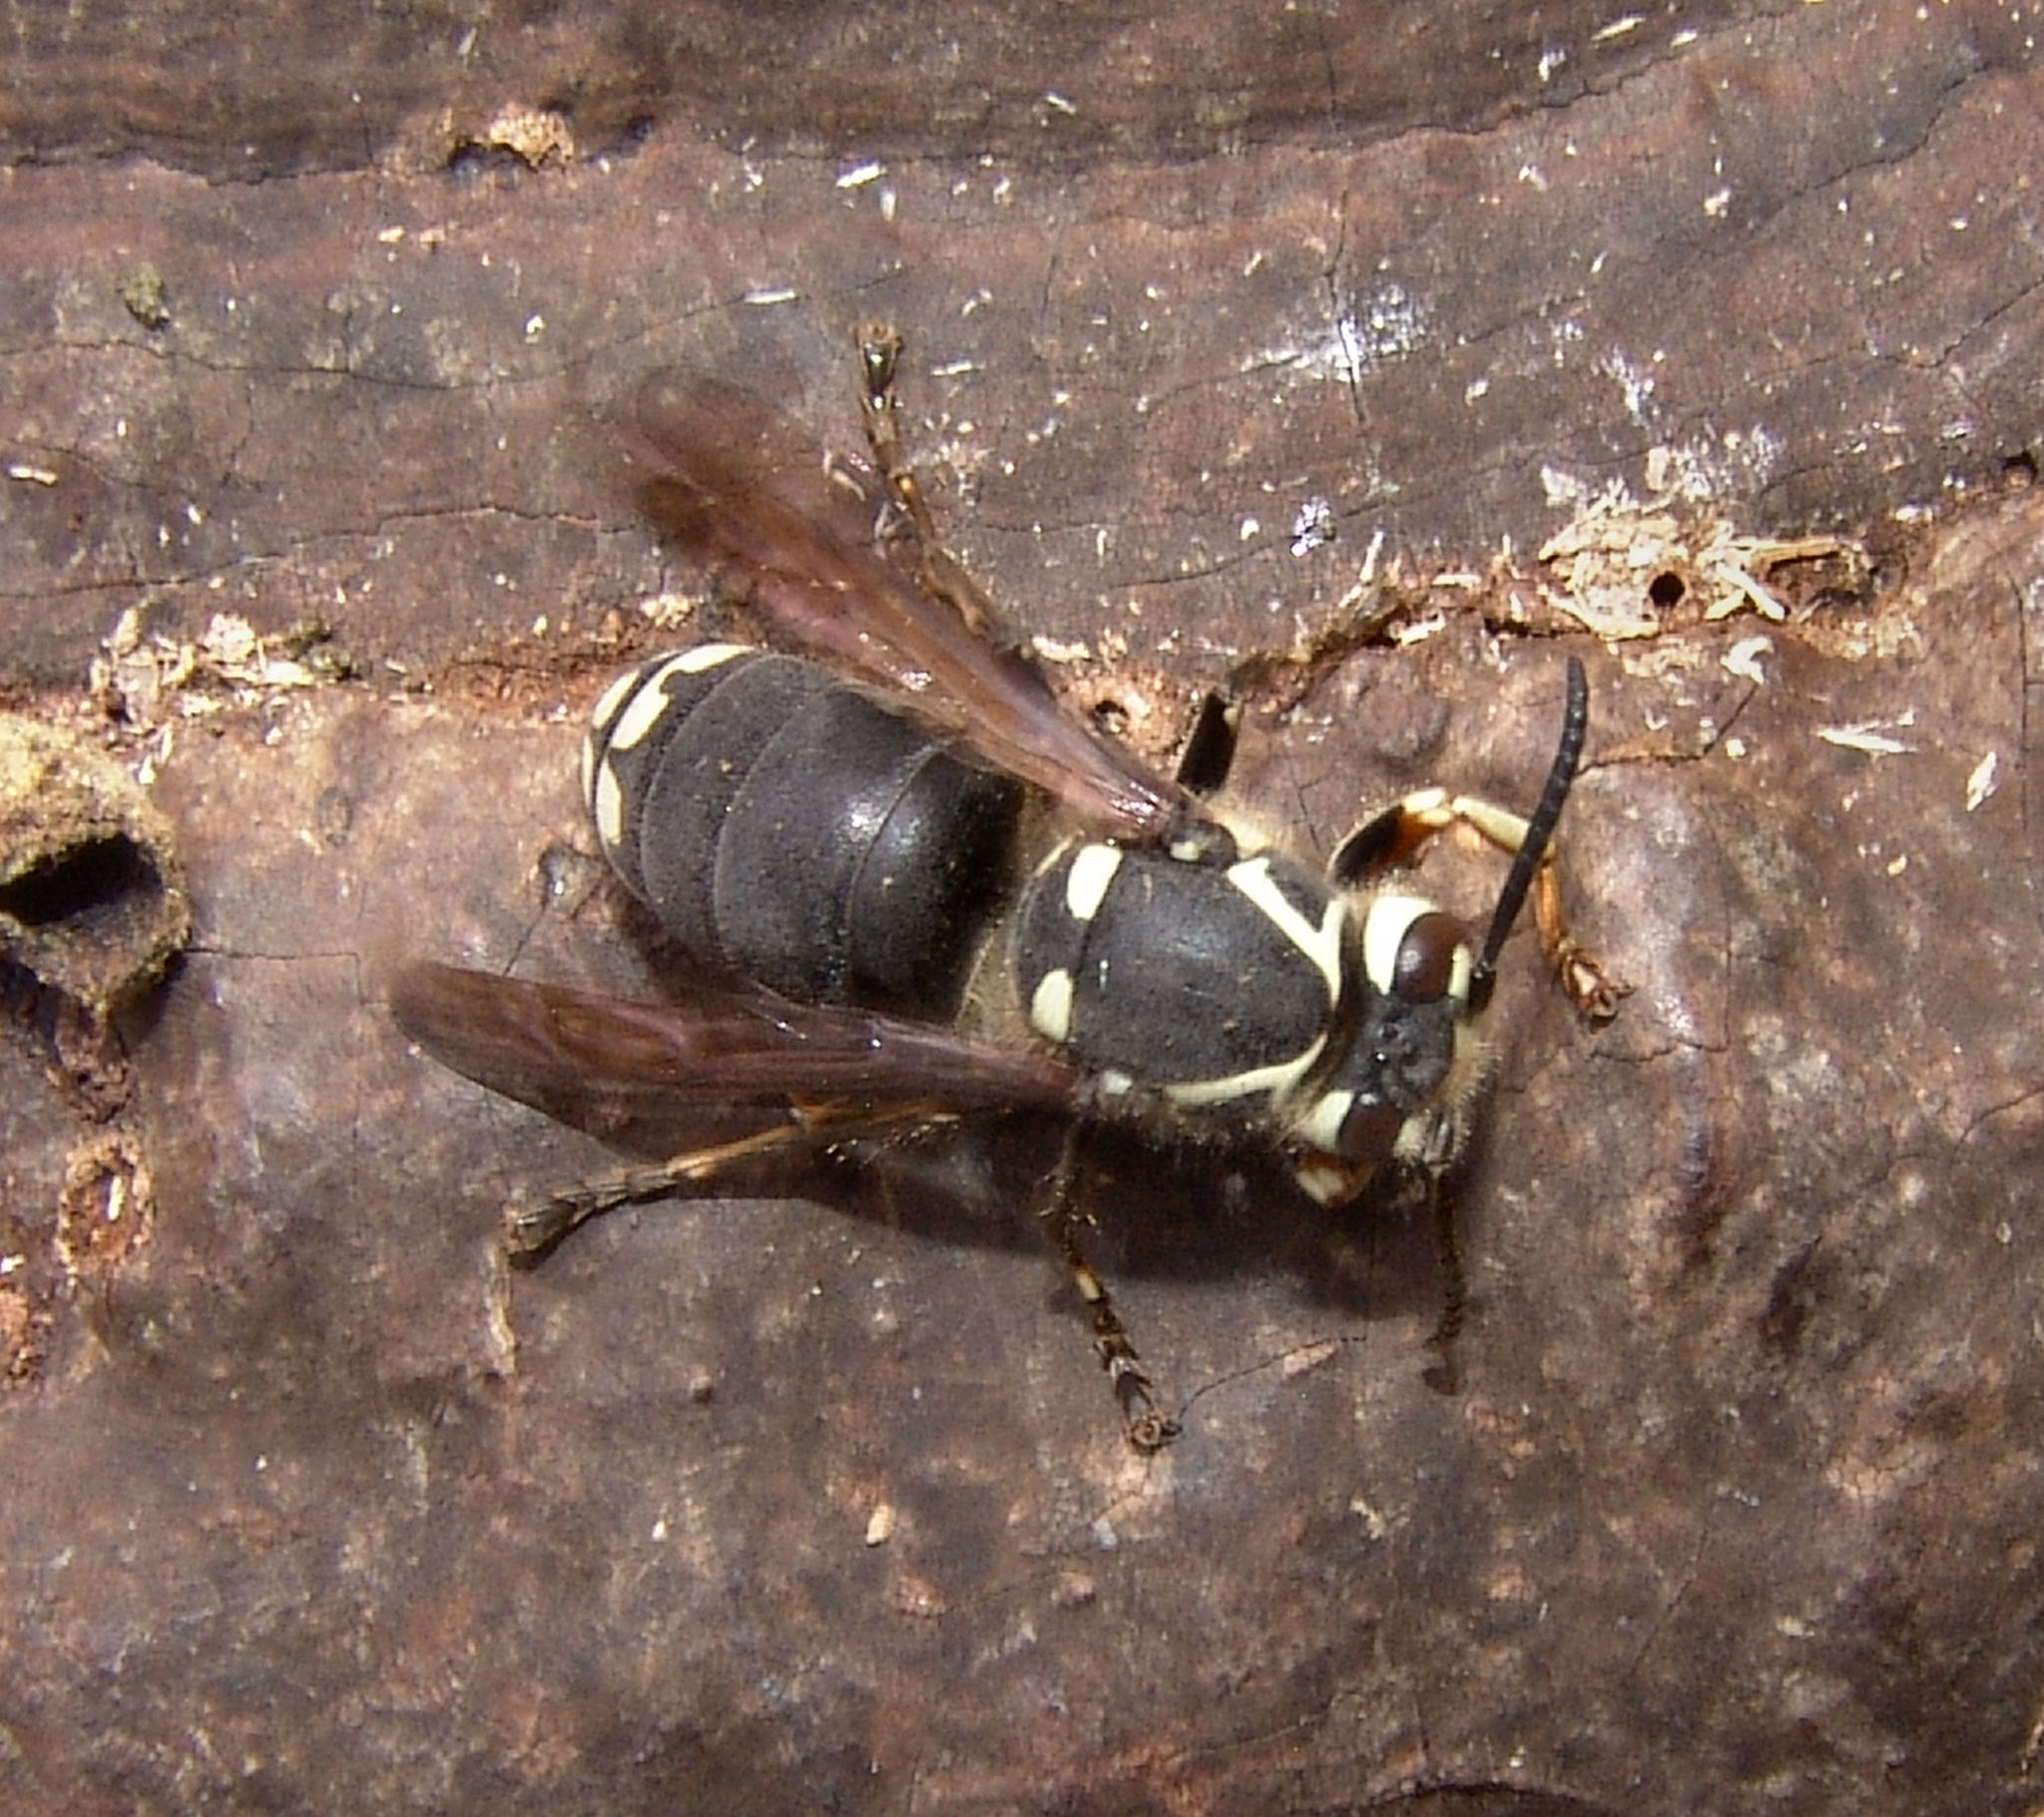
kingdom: Animalia
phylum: Arthropoda
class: Insecta
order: Hymenoptera
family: Vespidae
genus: Dolichovespula
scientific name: Dolichovespula maculata
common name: Bald-faced hornet
